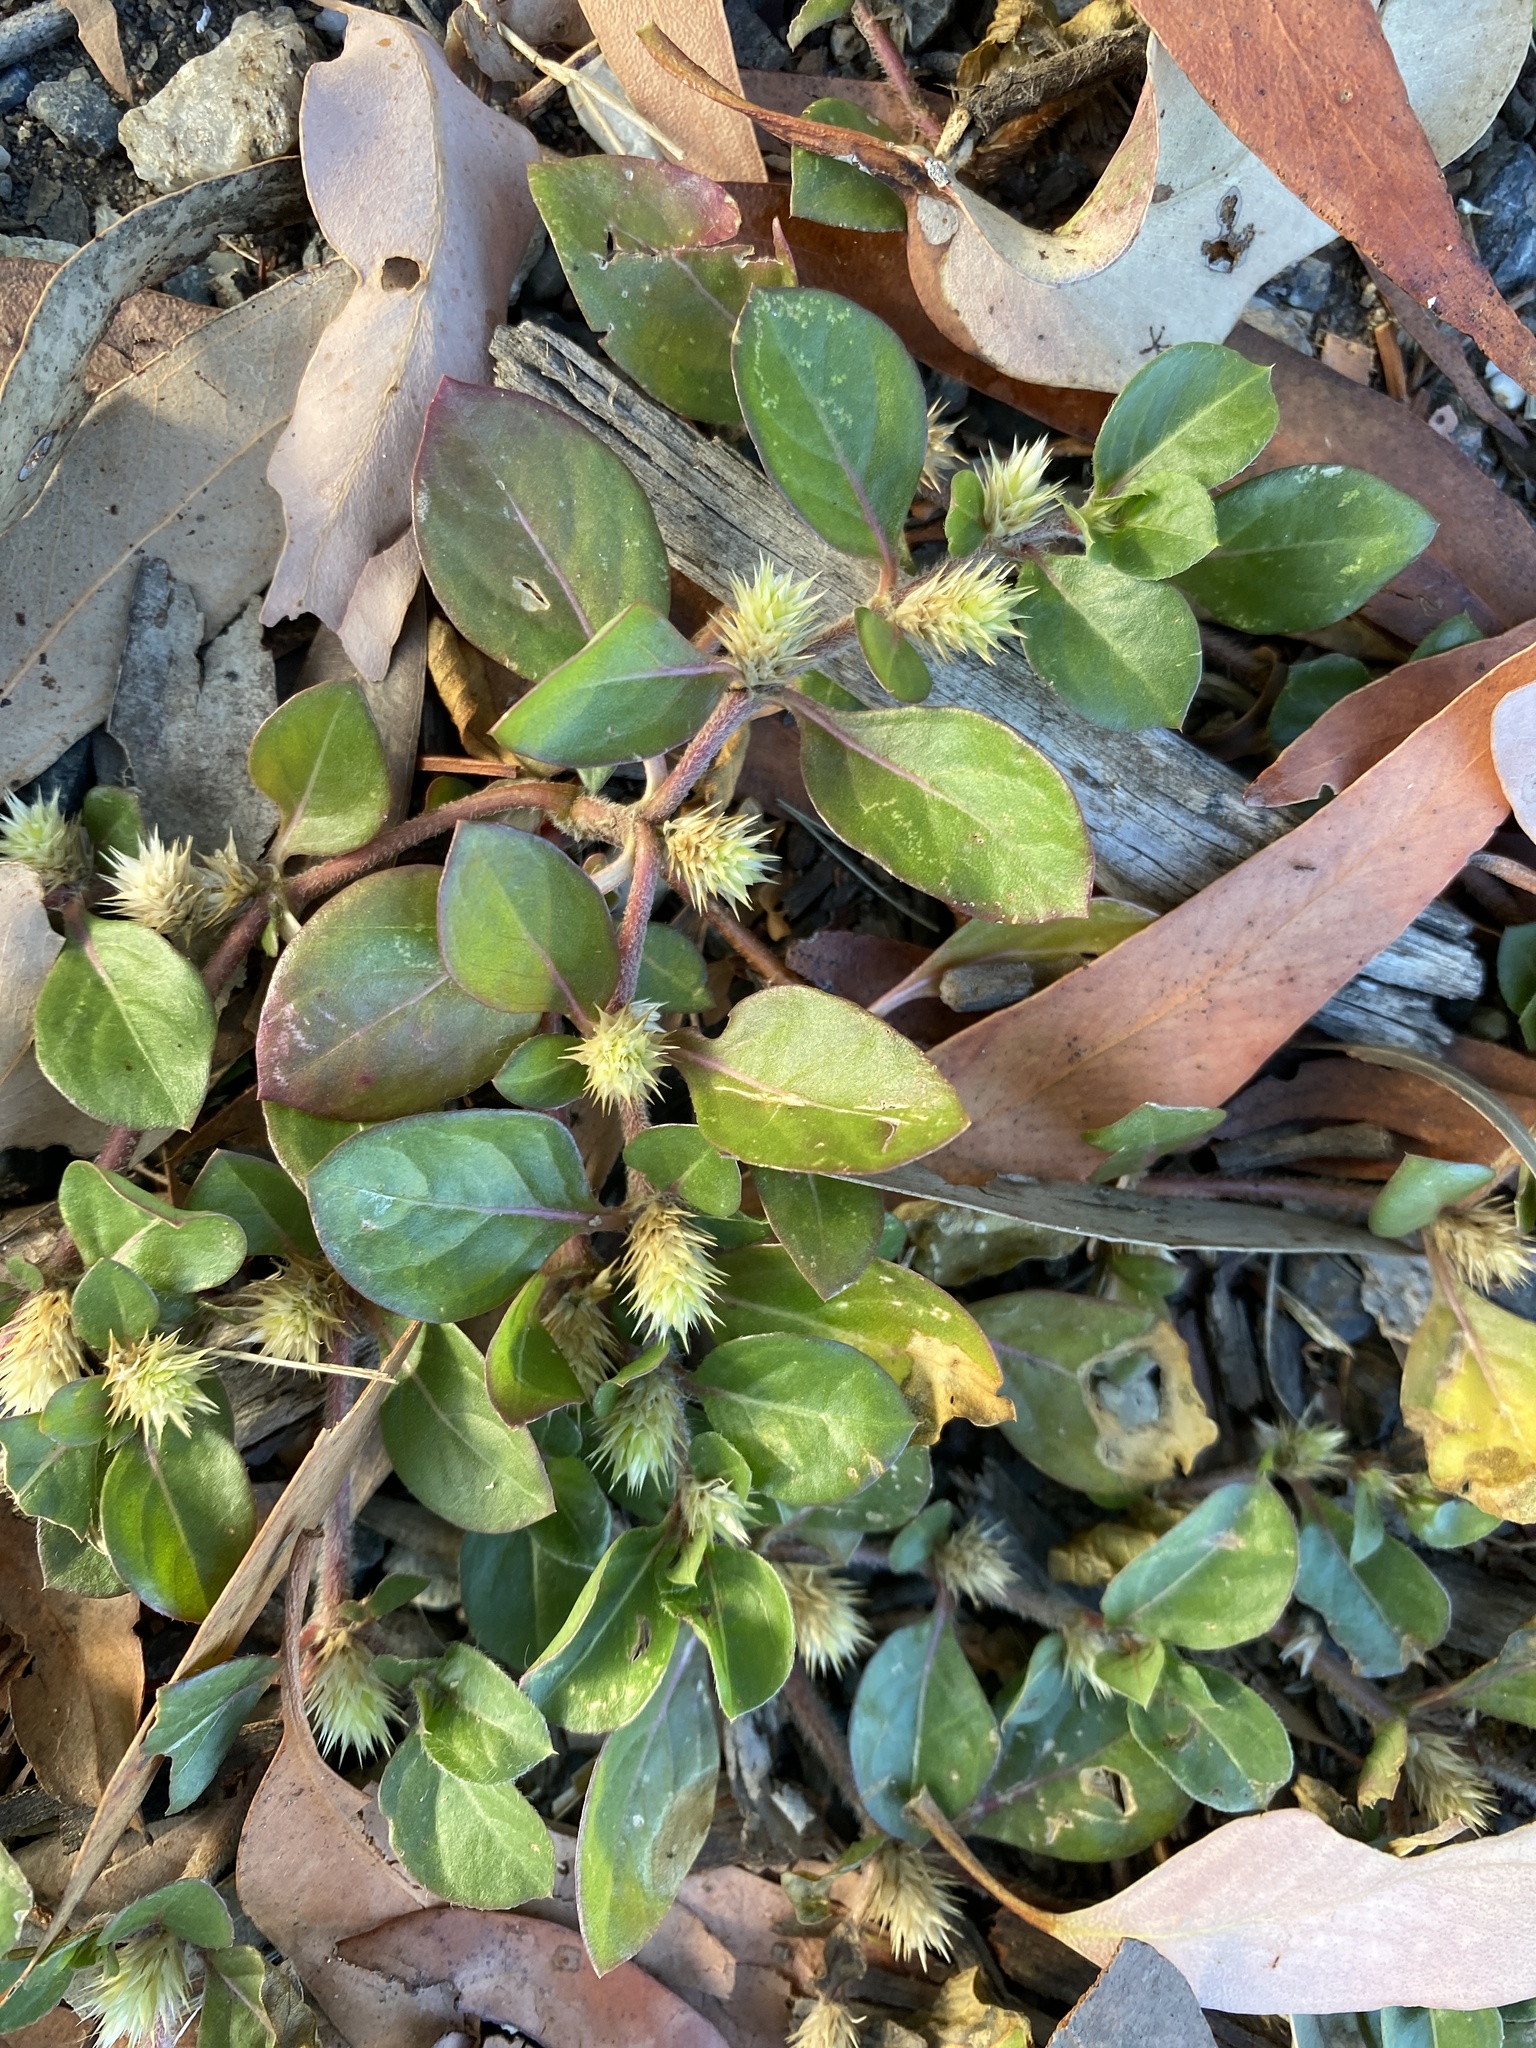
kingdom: Plantae
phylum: Tracheophyta
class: Magnoliopsida
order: Caryophyllales
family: Amaranthaceae
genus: Alternanthera
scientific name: Alternanthera pungens
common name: Khakiweed
